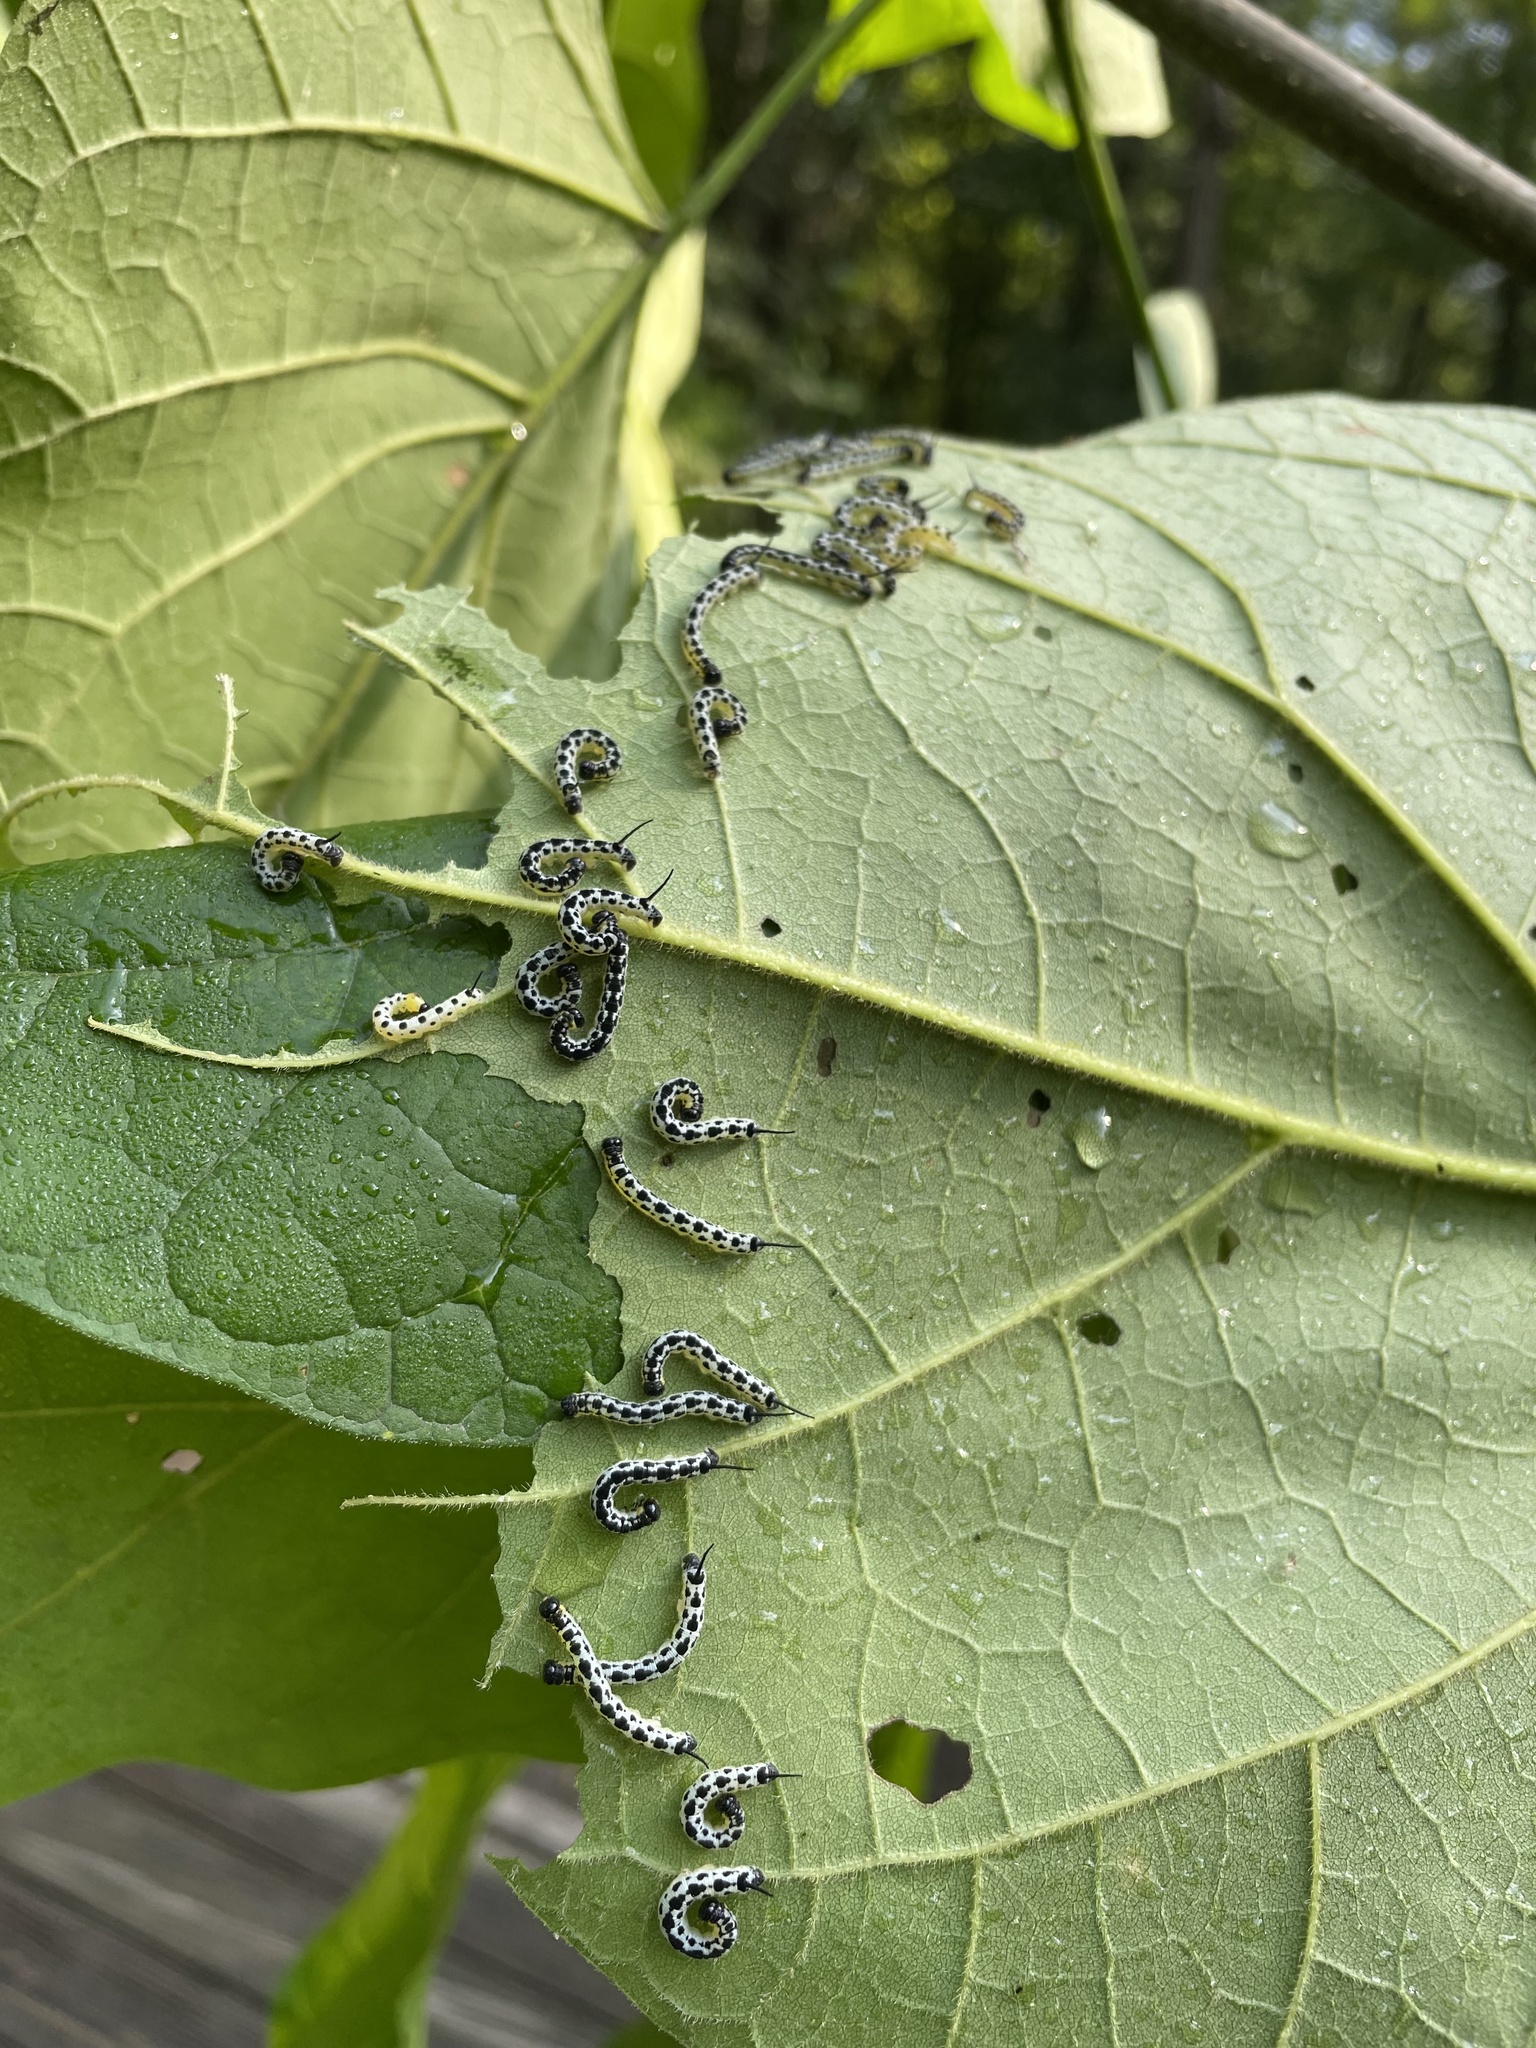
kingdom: Animalia
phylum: Arthropoda
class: Insecta
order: Lepidoptera
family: Sphingidae
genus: Ceratomia
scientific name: Ceratomia catalpae
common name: Catalpa hornworm
